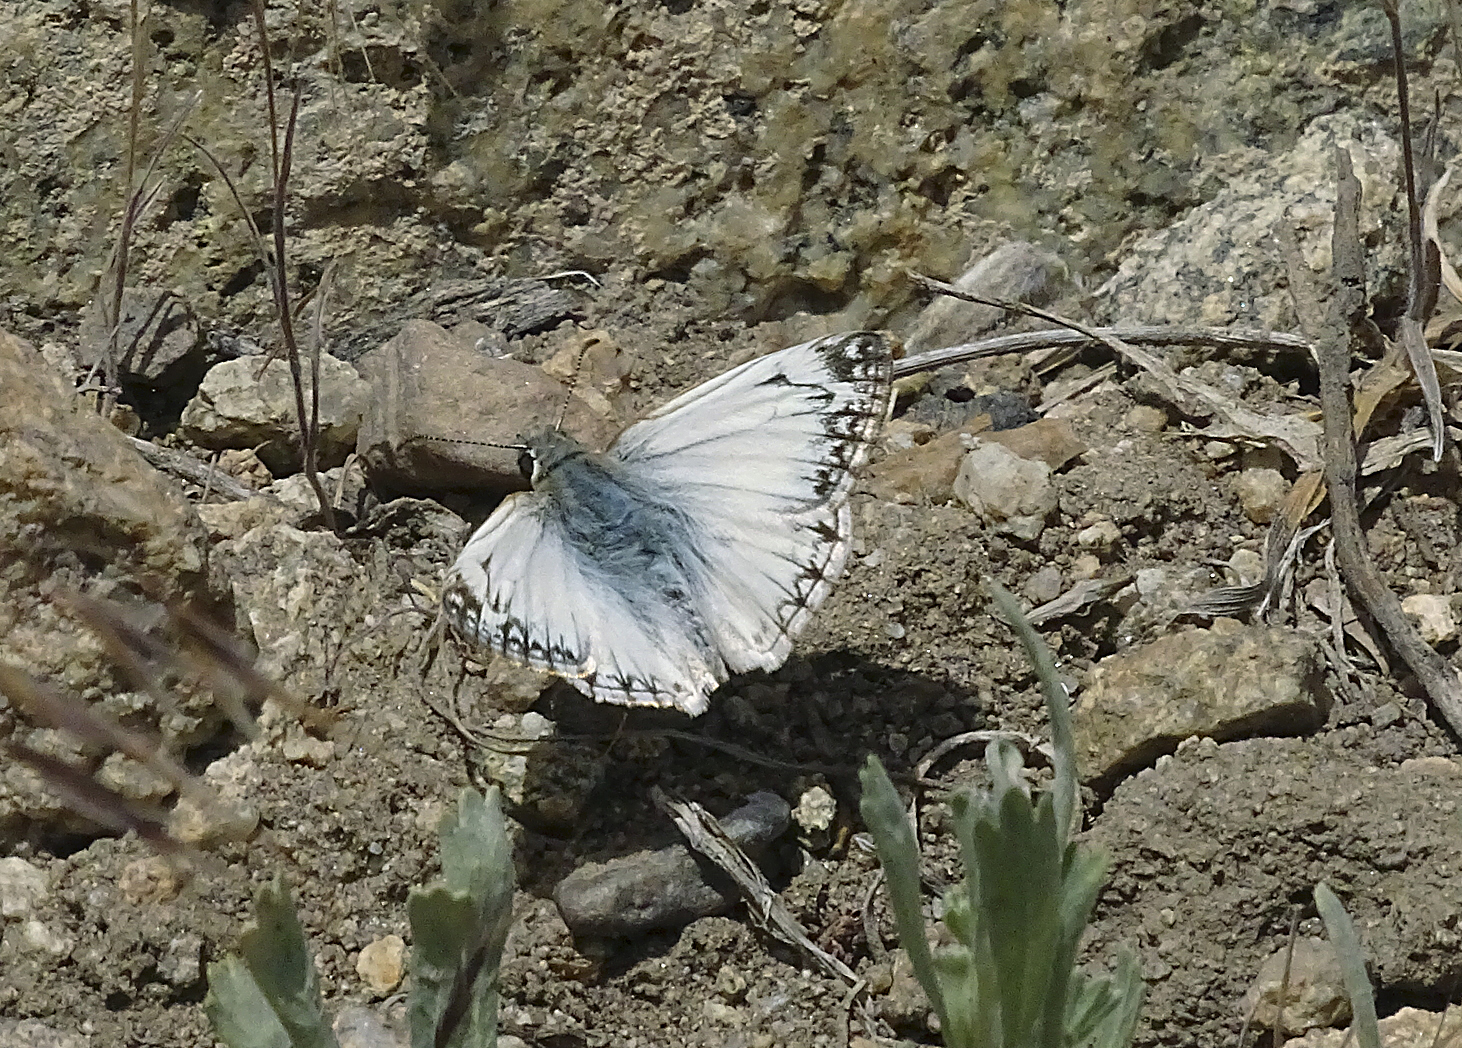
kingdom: Animalia
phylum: Arthropoda
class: Insecta
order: Lepidoptera
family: Hesperiidae
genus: Heliopetes
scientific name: Heliopetes ericetorum
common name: Northern white-skipper
